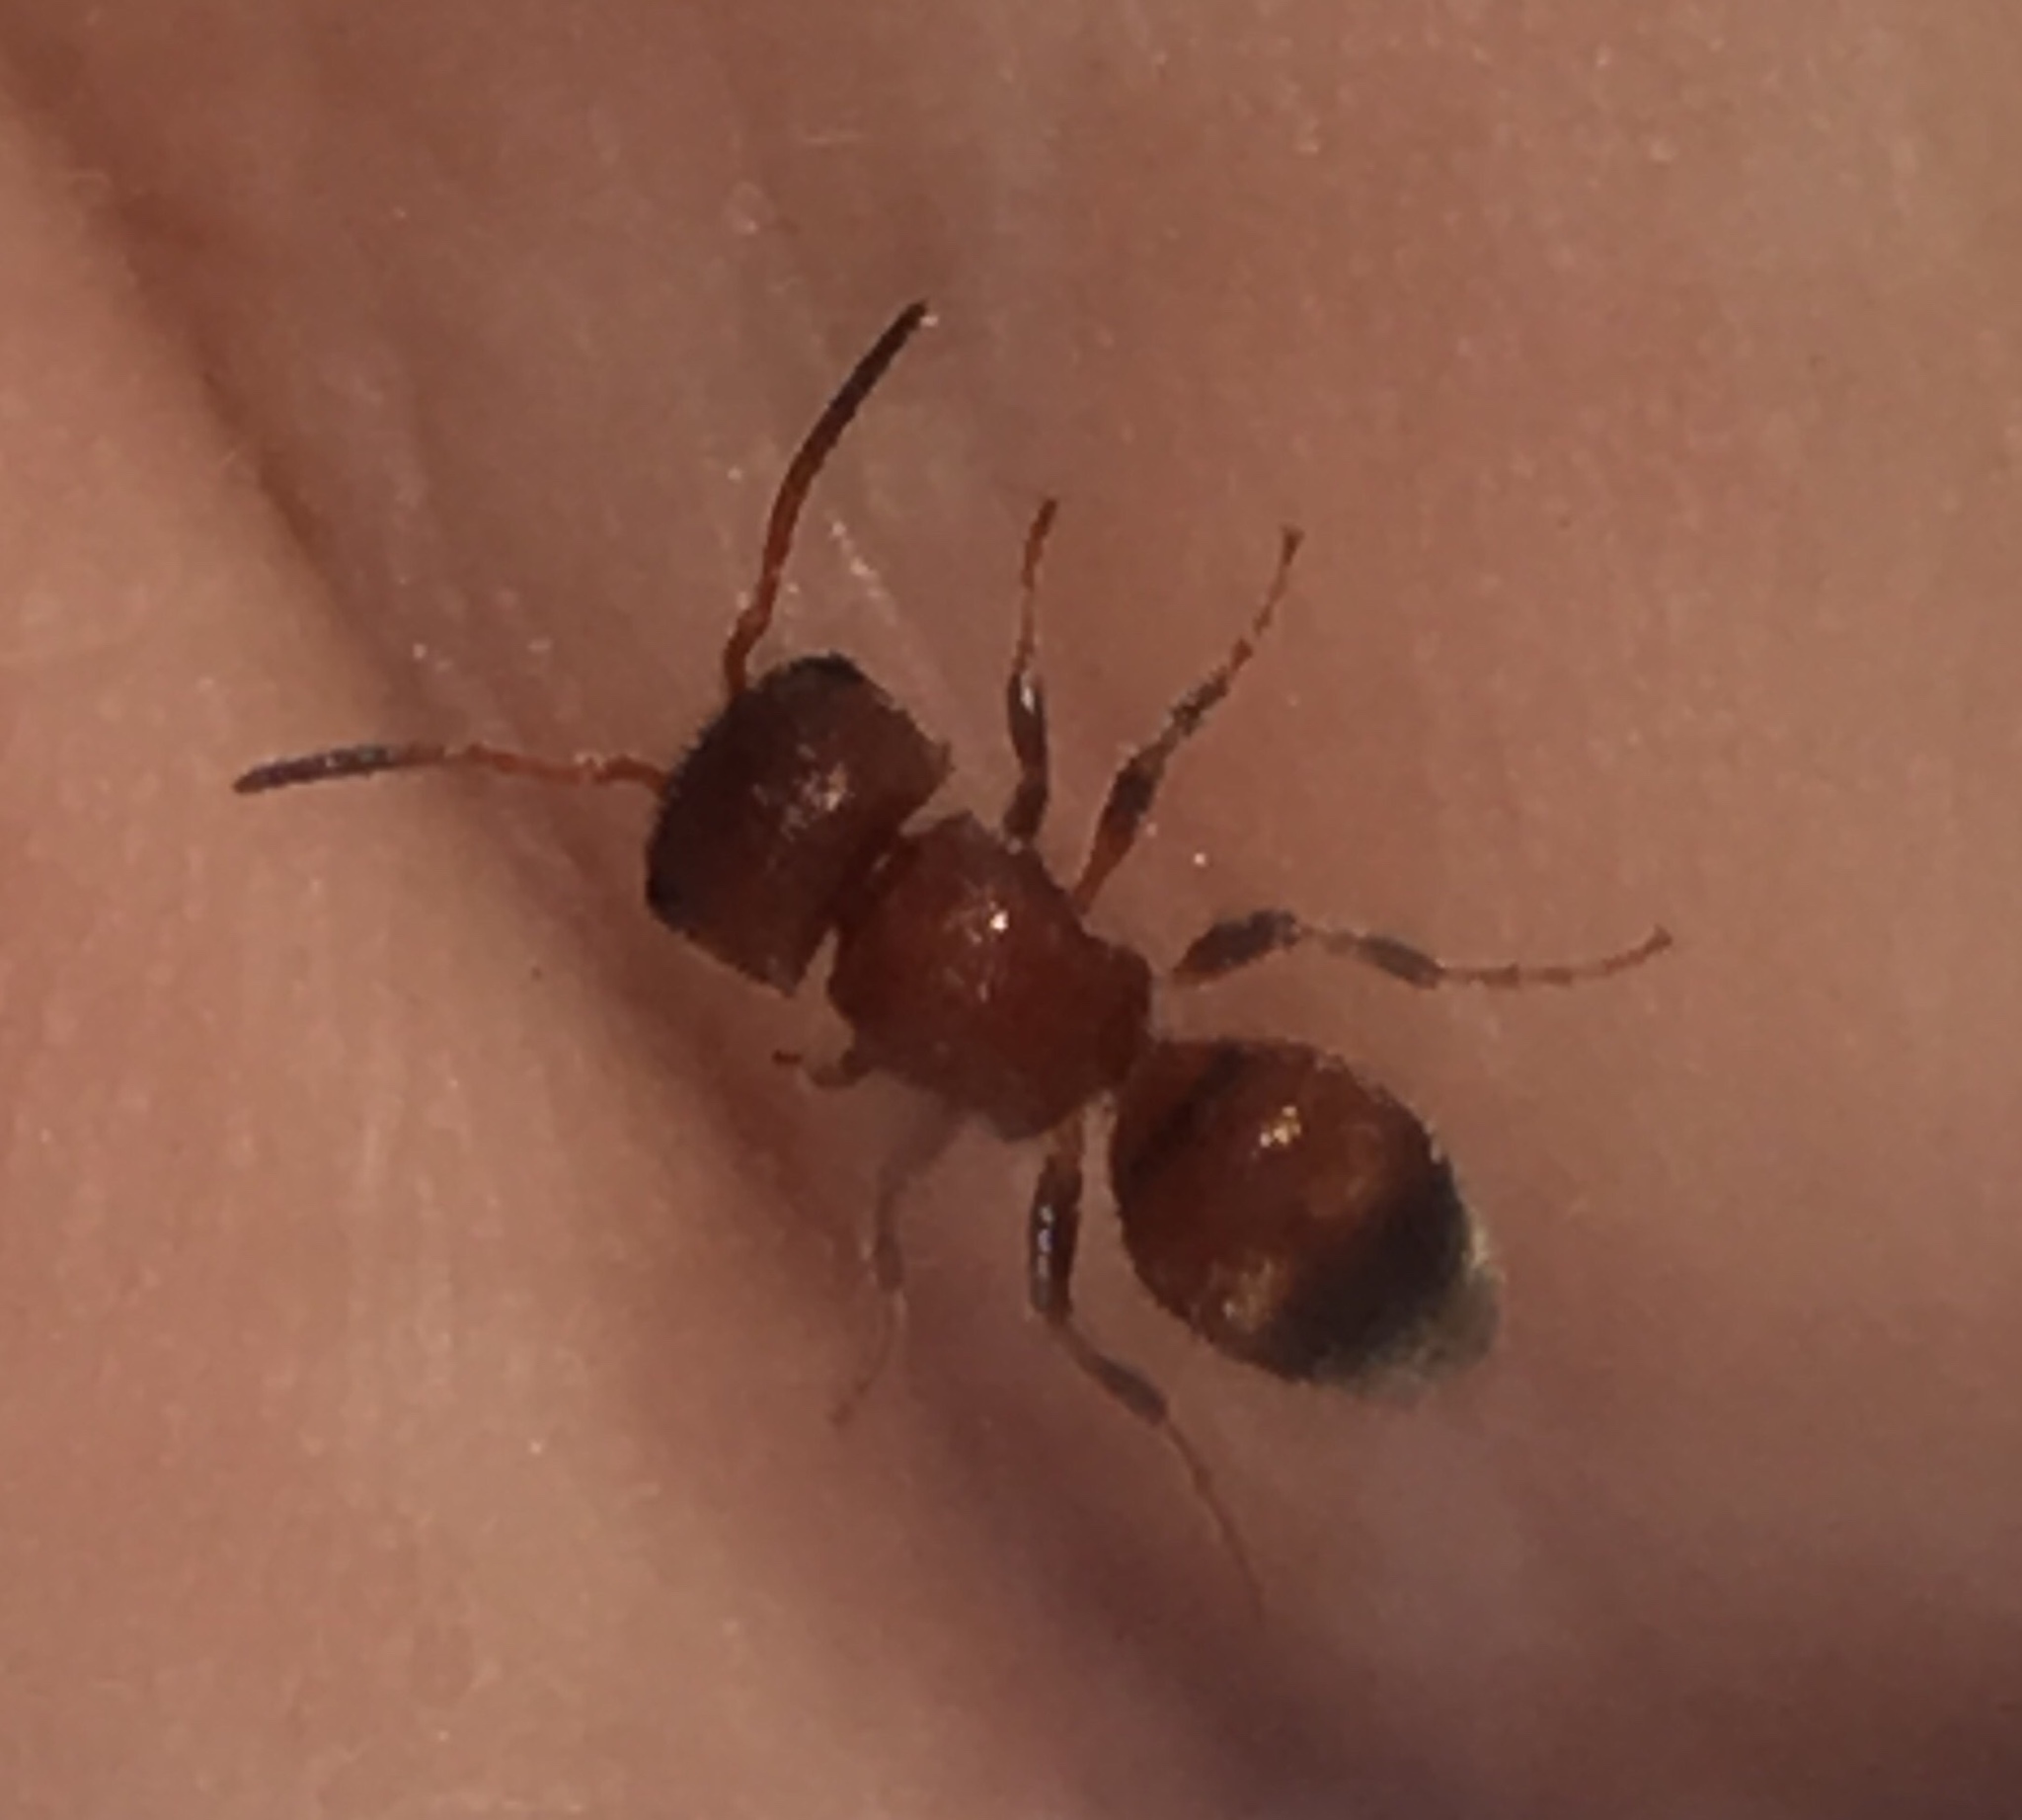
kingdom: Animalia
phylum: Arthropoda
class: Insecta
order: Hymenoptera
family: Mutillidae
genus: Pseudomethoca
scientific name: Pseudomethoca
